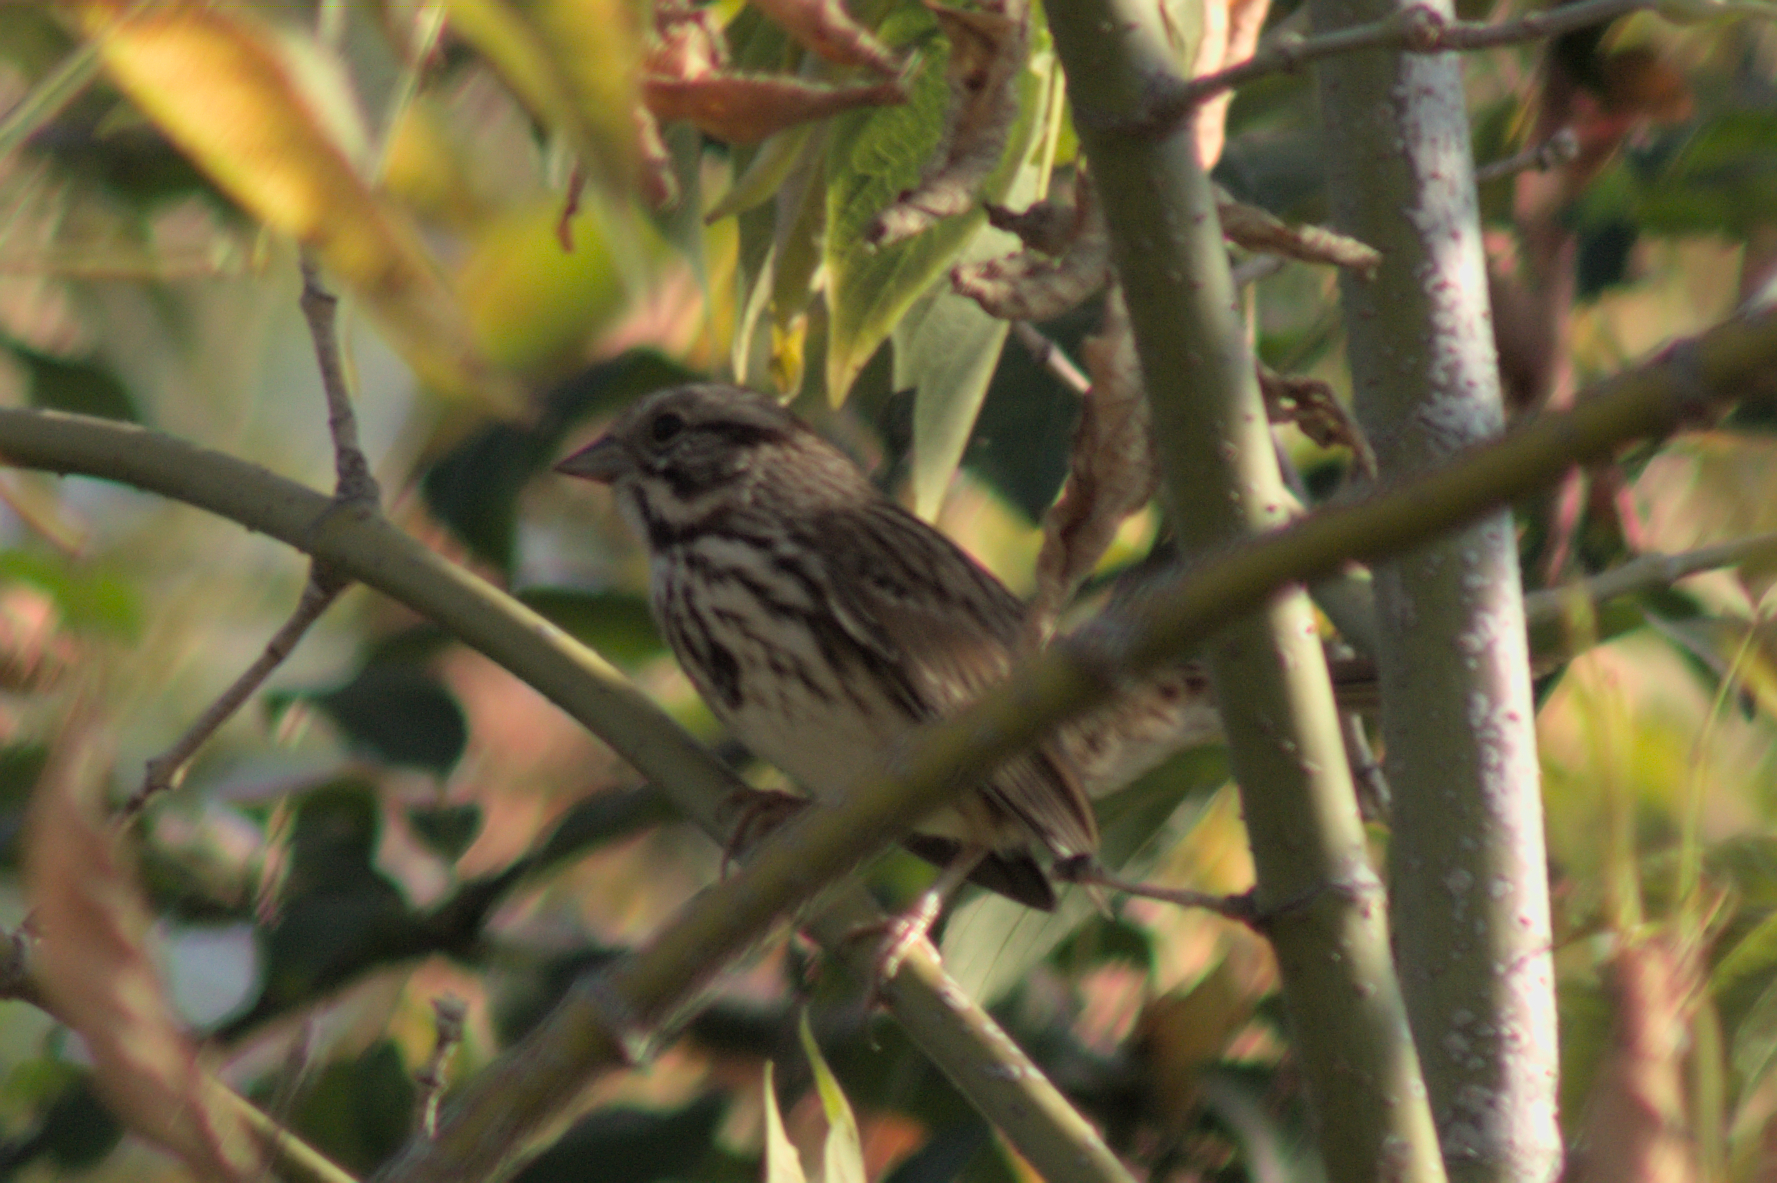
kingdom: Animalia
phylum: Chordata
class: Aves
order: Passeriformes
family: Passerellidae
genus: Melospiza
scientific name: Melospiza melodia
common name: Song sparrow
